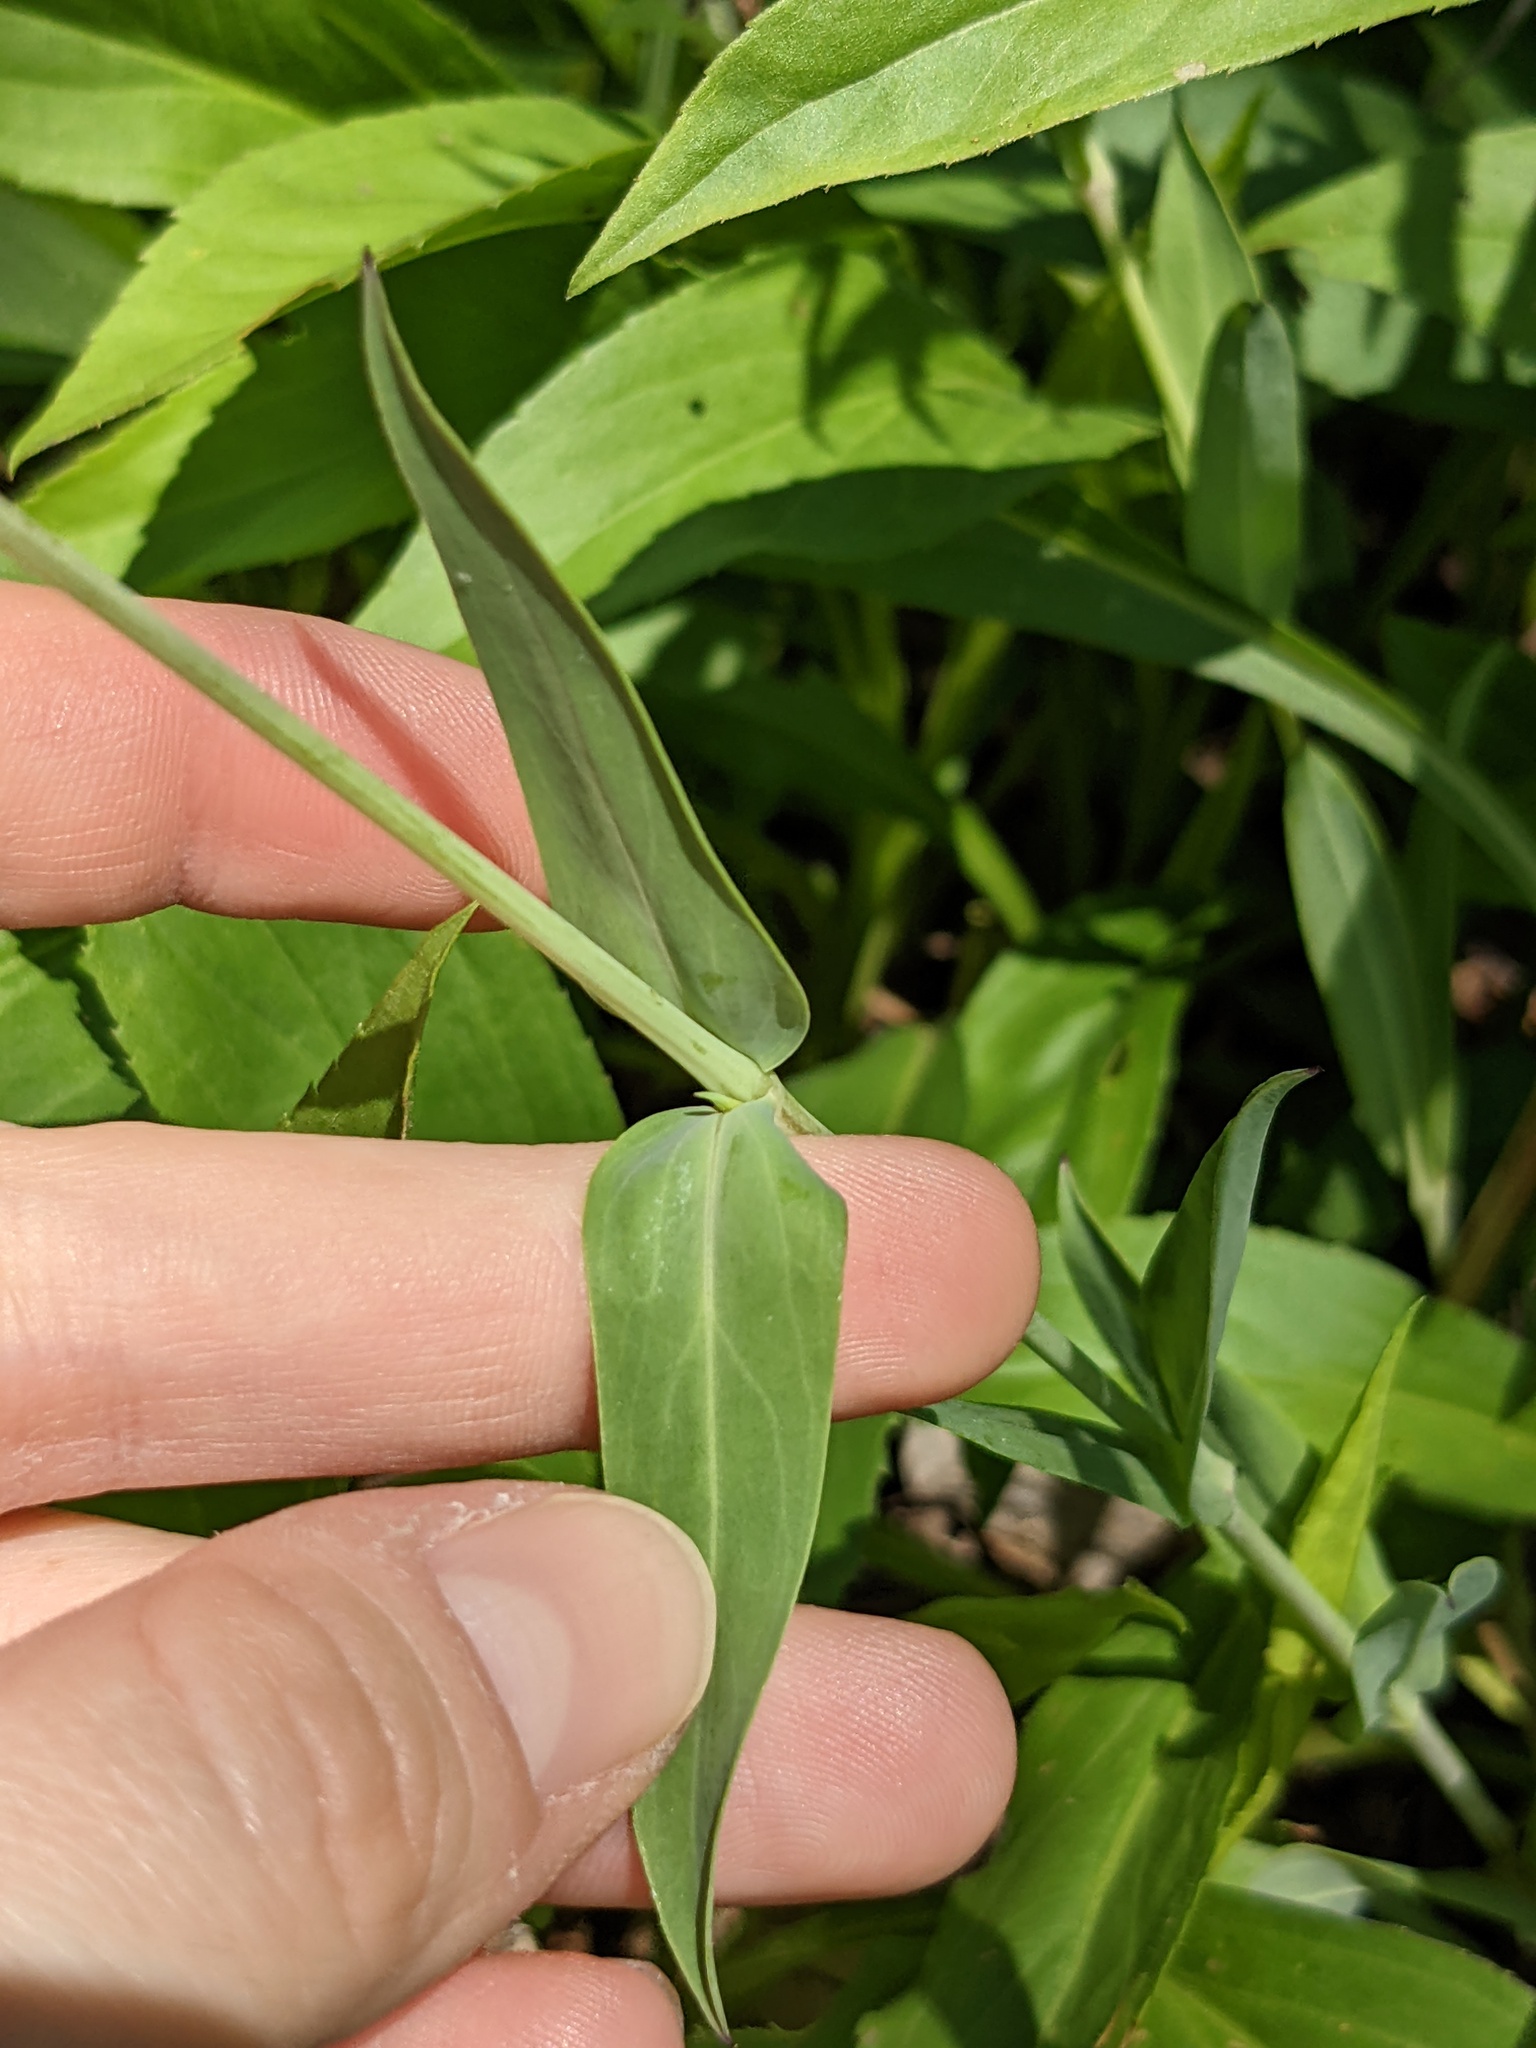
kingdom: Plantae
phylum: Tracheophyta
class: Magnoliopsida
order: Caryophyllales
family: Caryophyllaceae
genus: Silene
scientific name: Silene vulgaris
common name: Bladder campion
